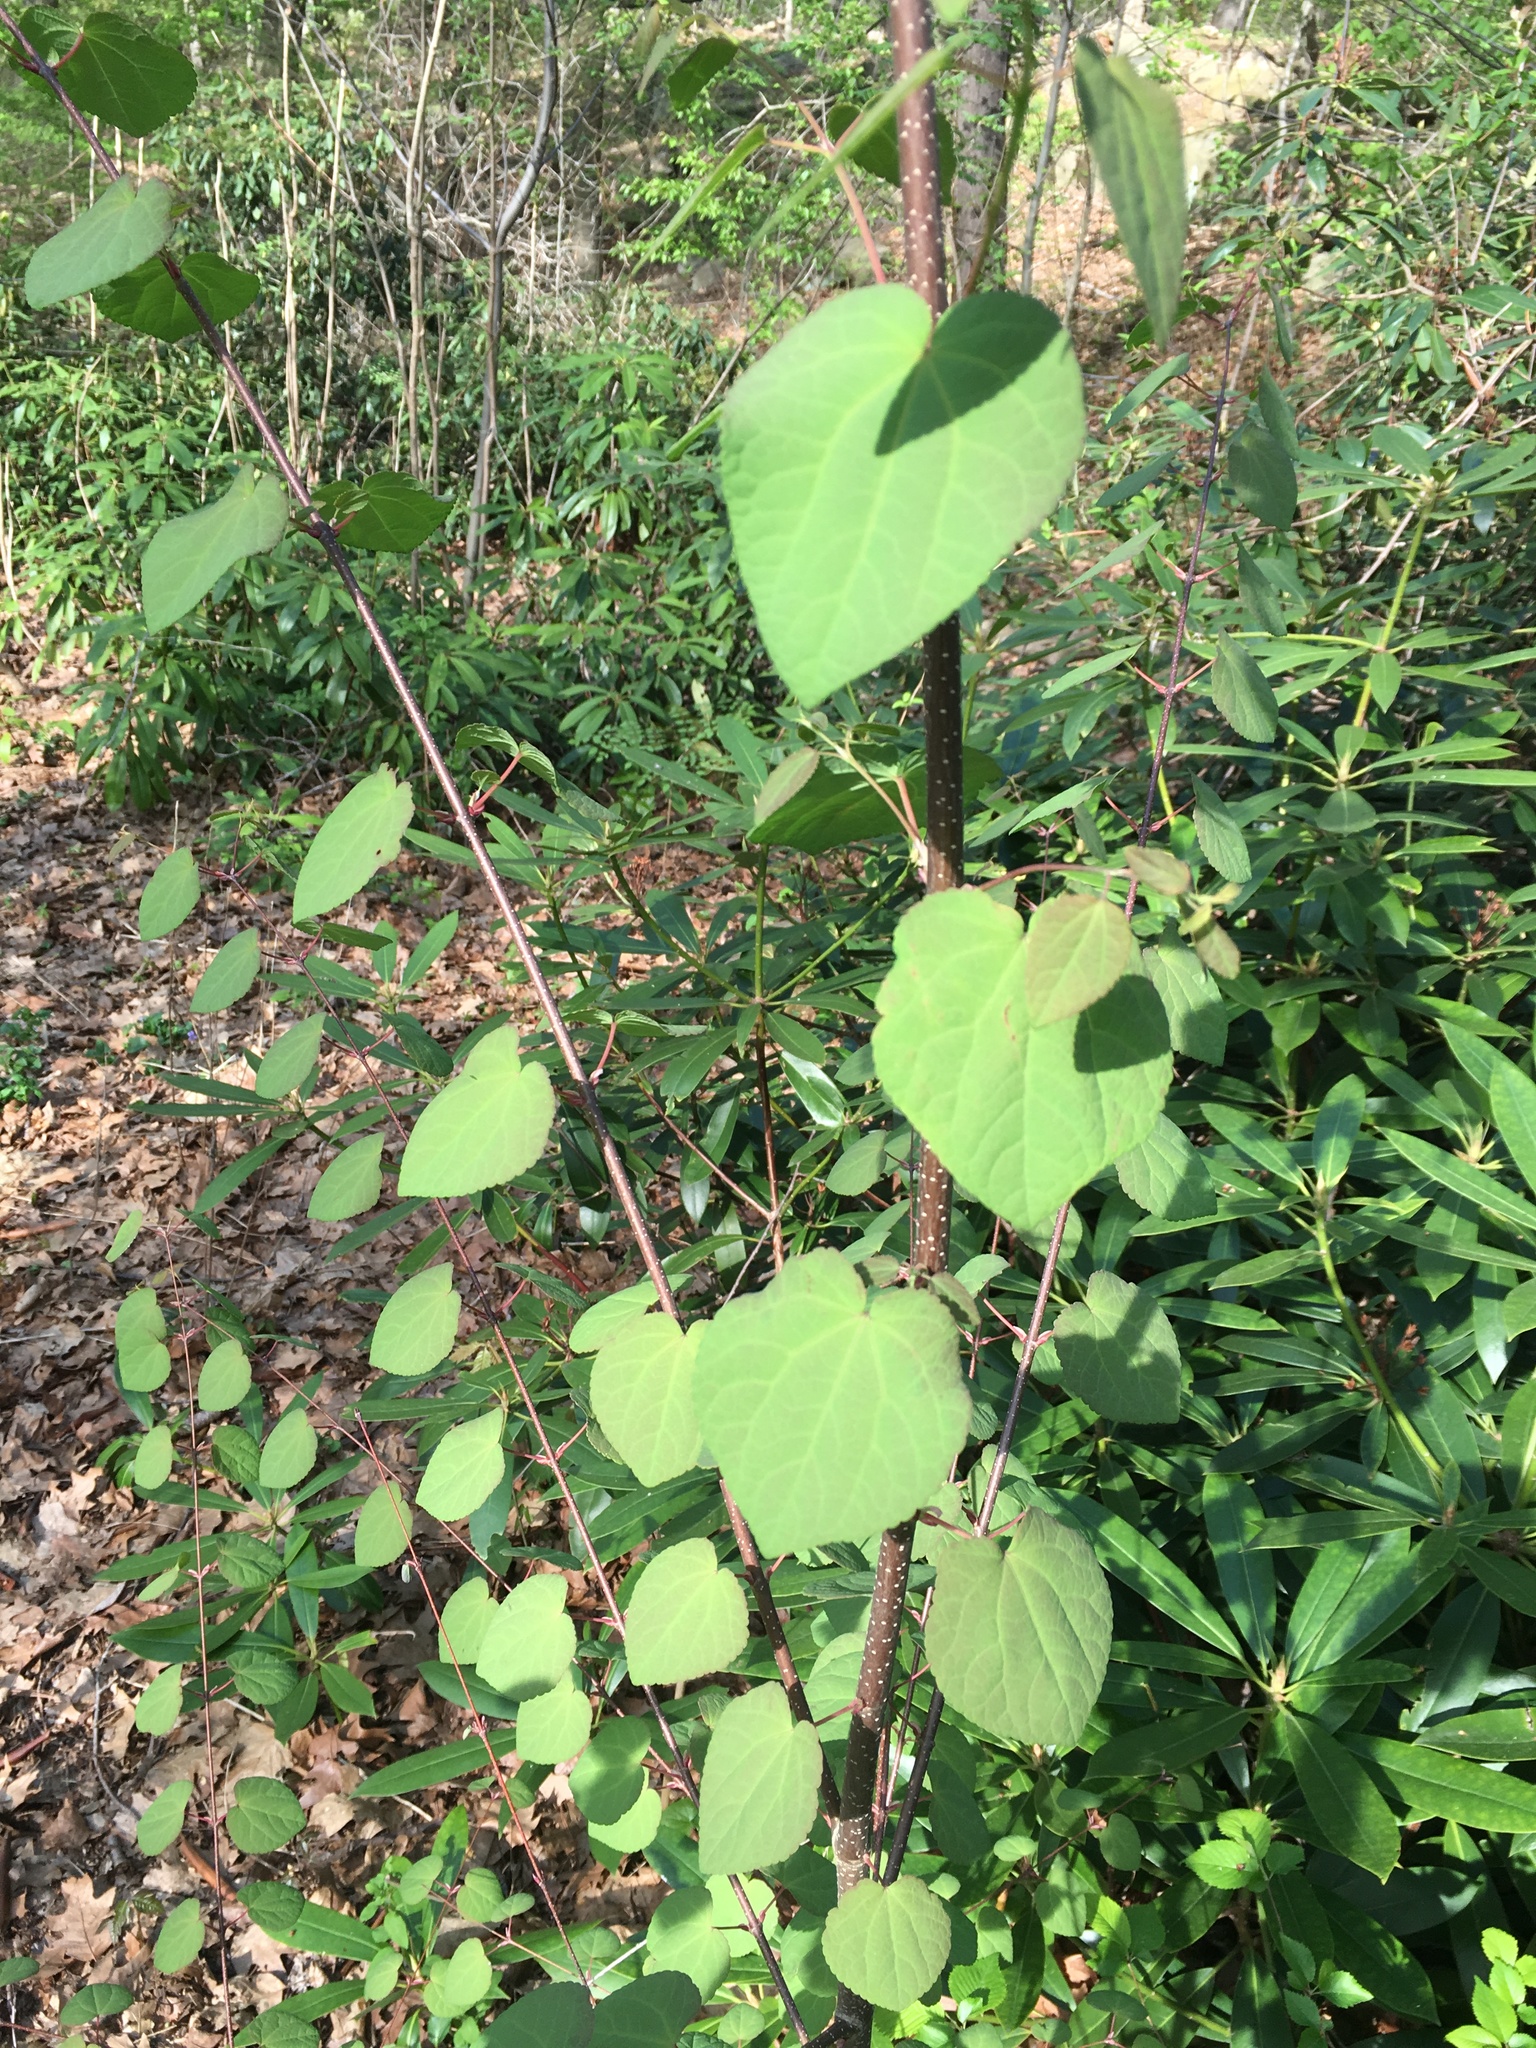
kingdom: Plantae
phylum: Tracheophyta
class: Magnoliopsida
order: Saxifragales
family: Cercidiphyllaceae
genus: Cercidiphyllum
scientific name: Cercidiphyllum japonicum
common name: Katsura tree
